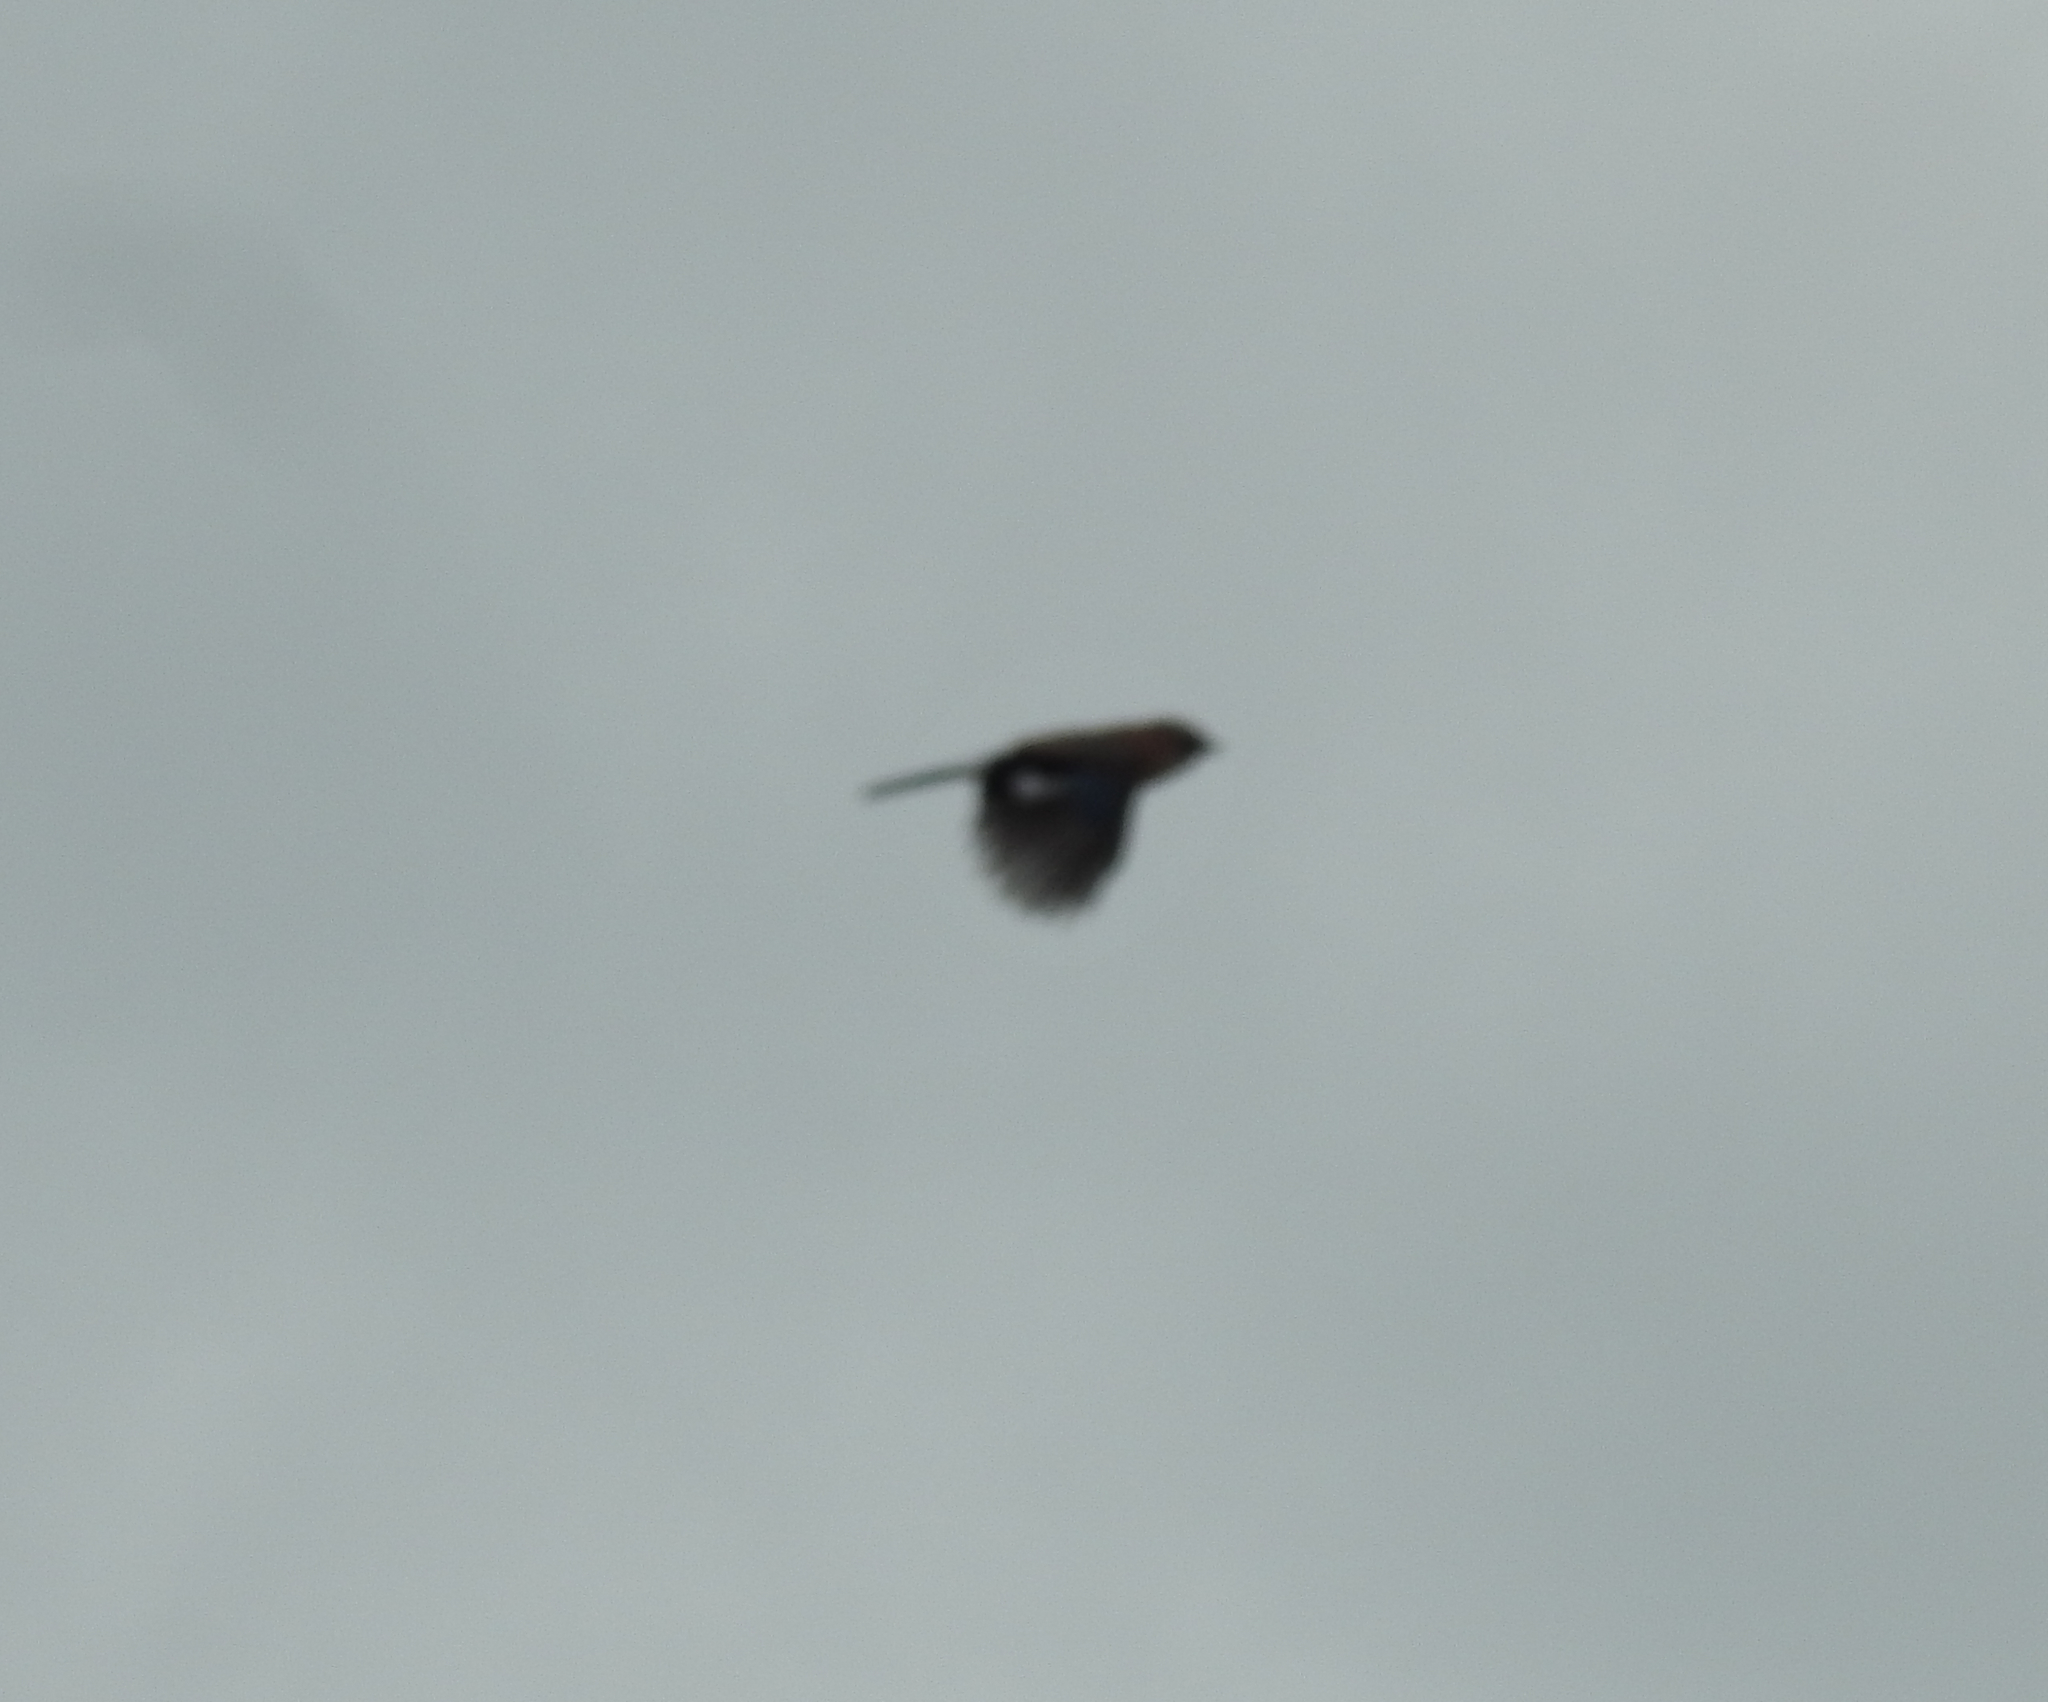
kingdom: Animalia
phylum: Chordata
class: Aves
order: Passeriformes
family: Corvidae
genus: Garrulus
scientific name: Garrulus glandarius
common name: Eurasian jay
